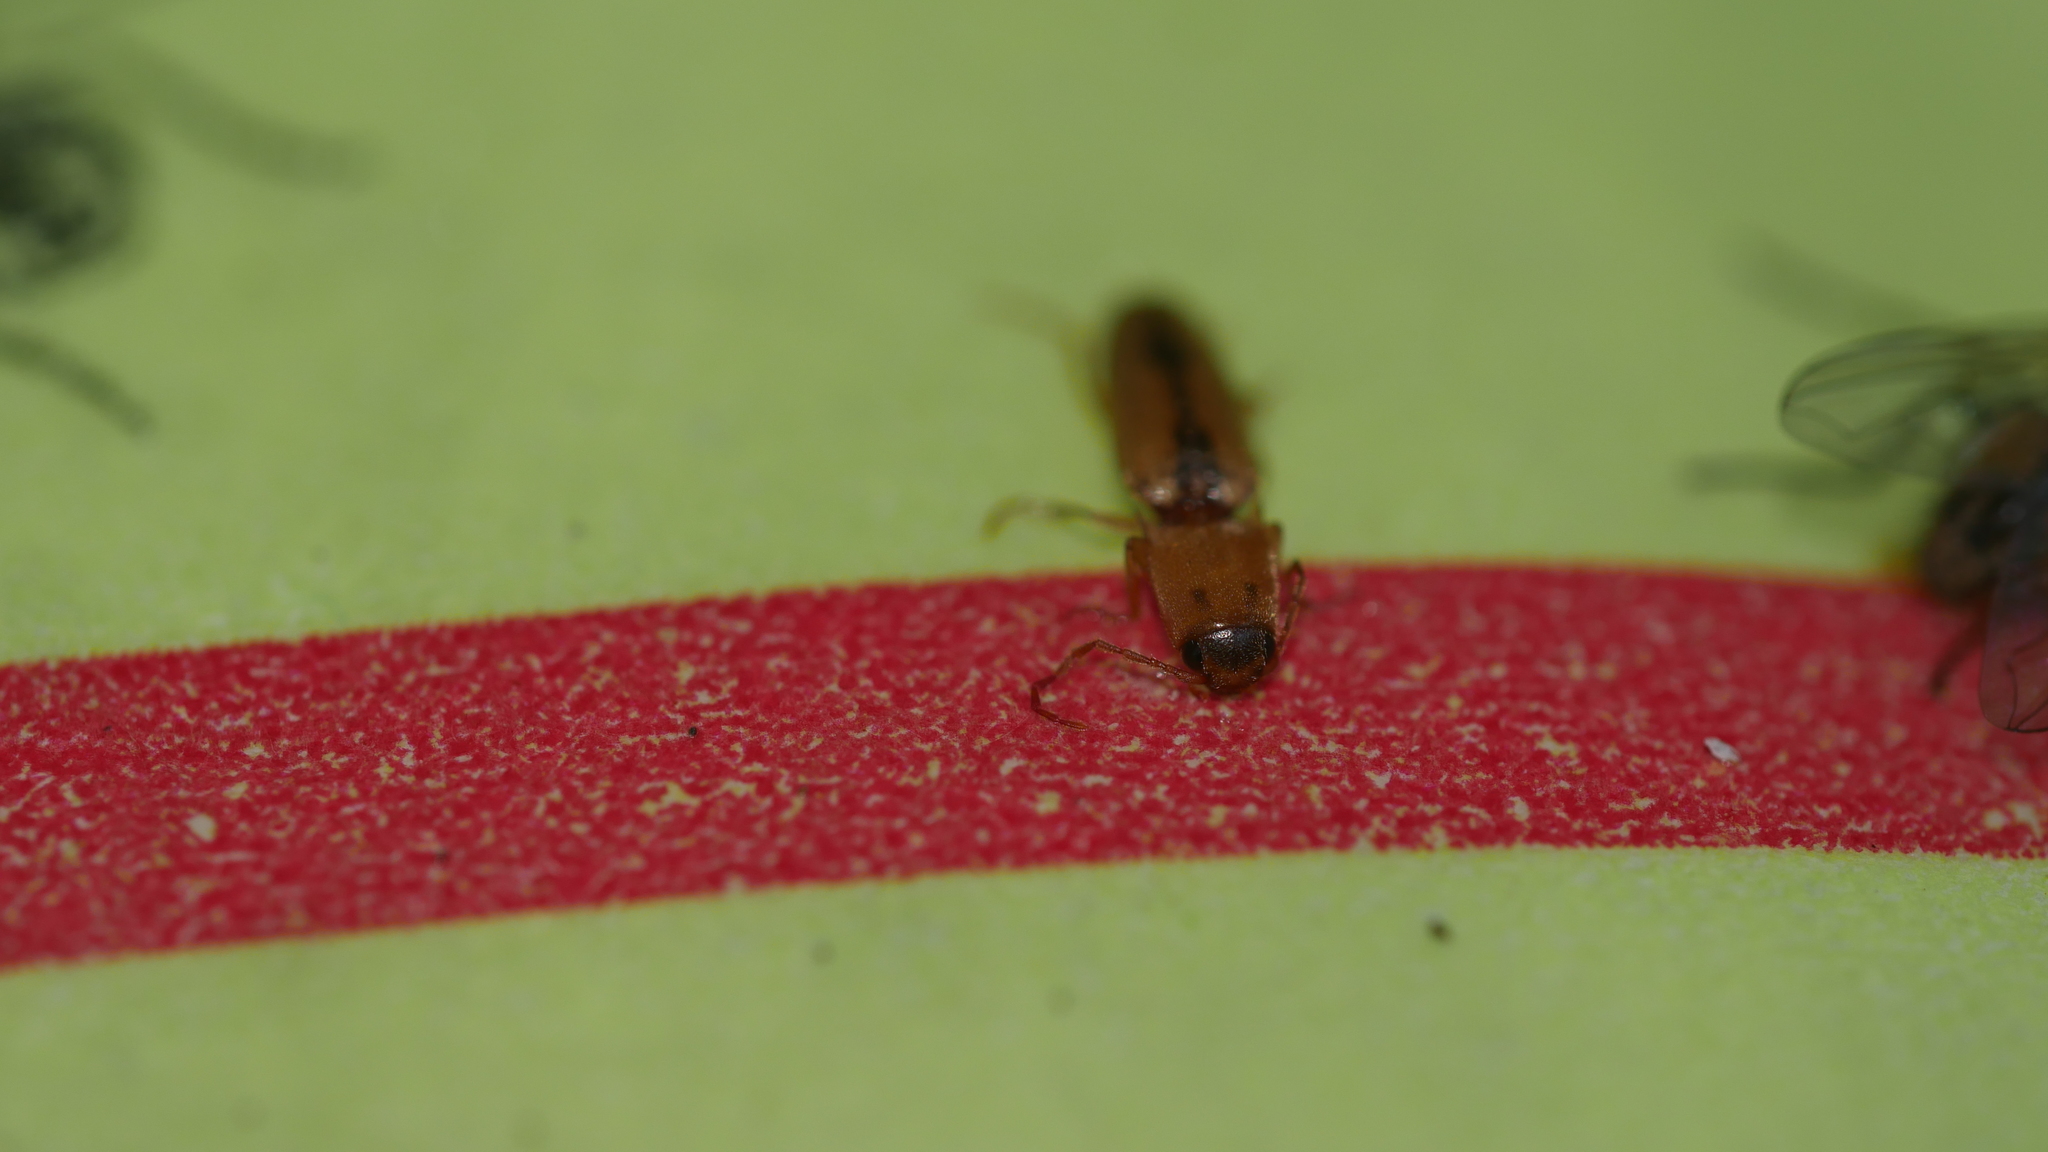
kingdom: Animalia
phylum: Arthropoda
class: Insecta
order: Coleoptera
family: Elateridae
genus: Monocrepidius
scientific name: Monocrepidius
